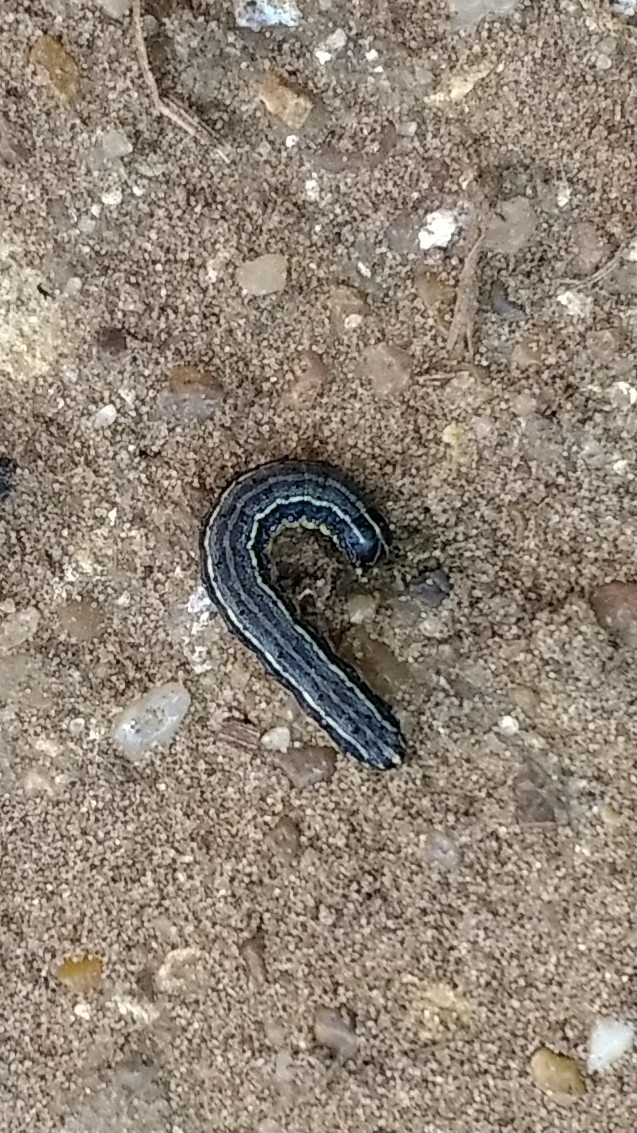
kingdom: Animalia
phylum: Arthropoda
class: Insecta
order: Lepidoptera
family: Noctuidae
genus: Spodoptera
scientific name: Spodoptera frugiperda
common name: Fall armyworm
